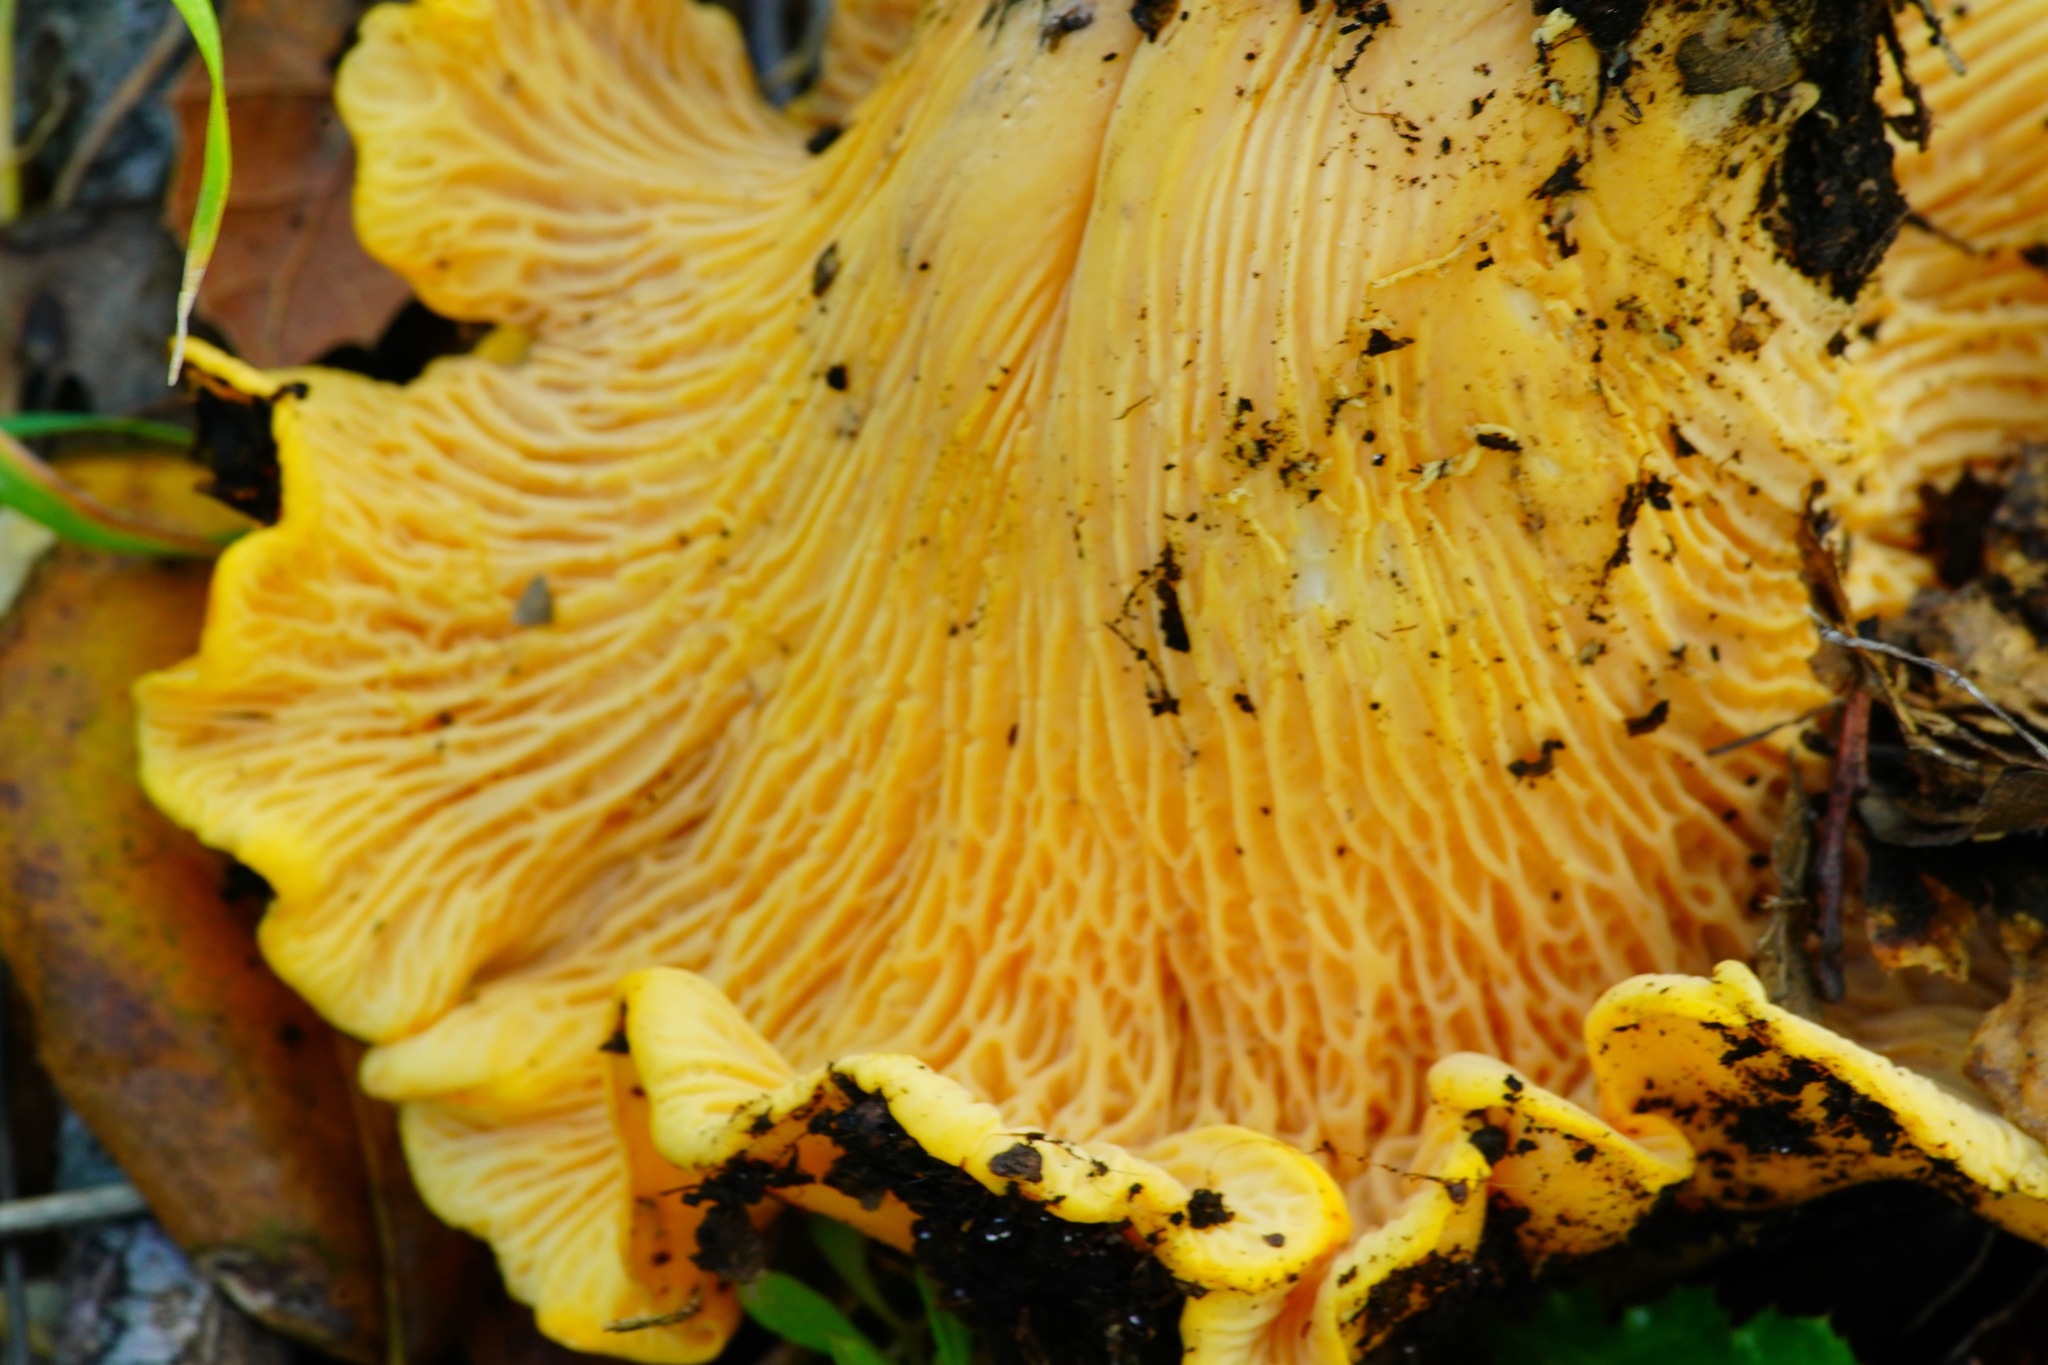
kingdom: Fungi
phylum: Basidiomycota
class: Agaricomycetes
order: Cantharellales
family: Hydnaceae
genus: Cantharellus
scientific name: Cantharellus californicus
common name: California golden chanterelle
